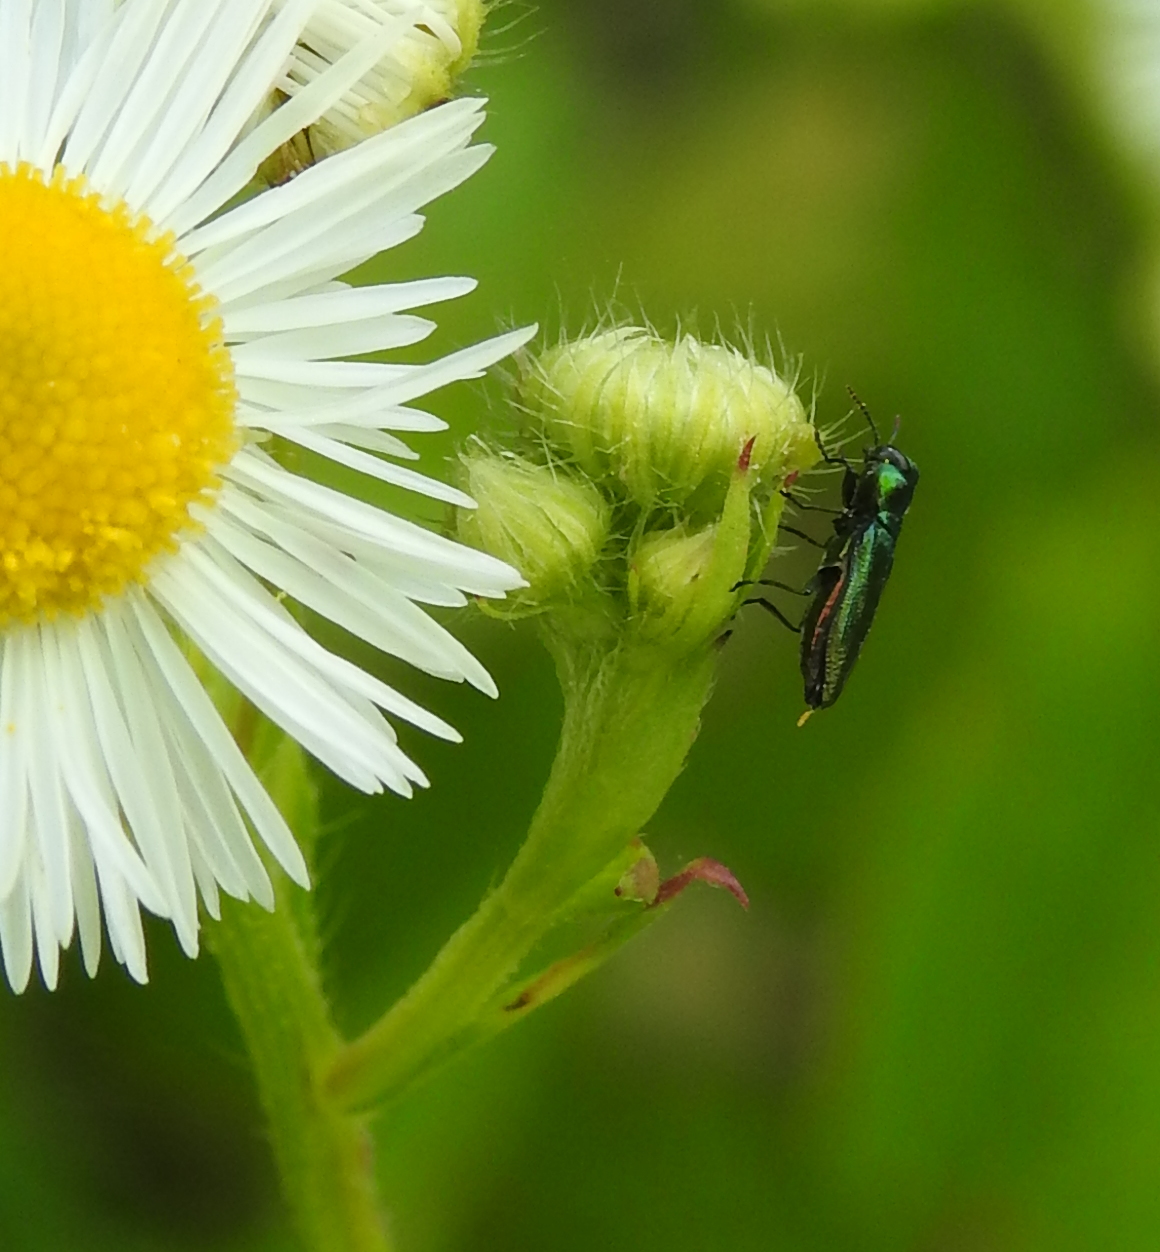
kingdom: Animalia
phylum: Arthropoda
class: Insecta
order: Coleoptera
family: Buprestidae
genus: Anthaxia
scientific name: Anthaxia thalassophila
